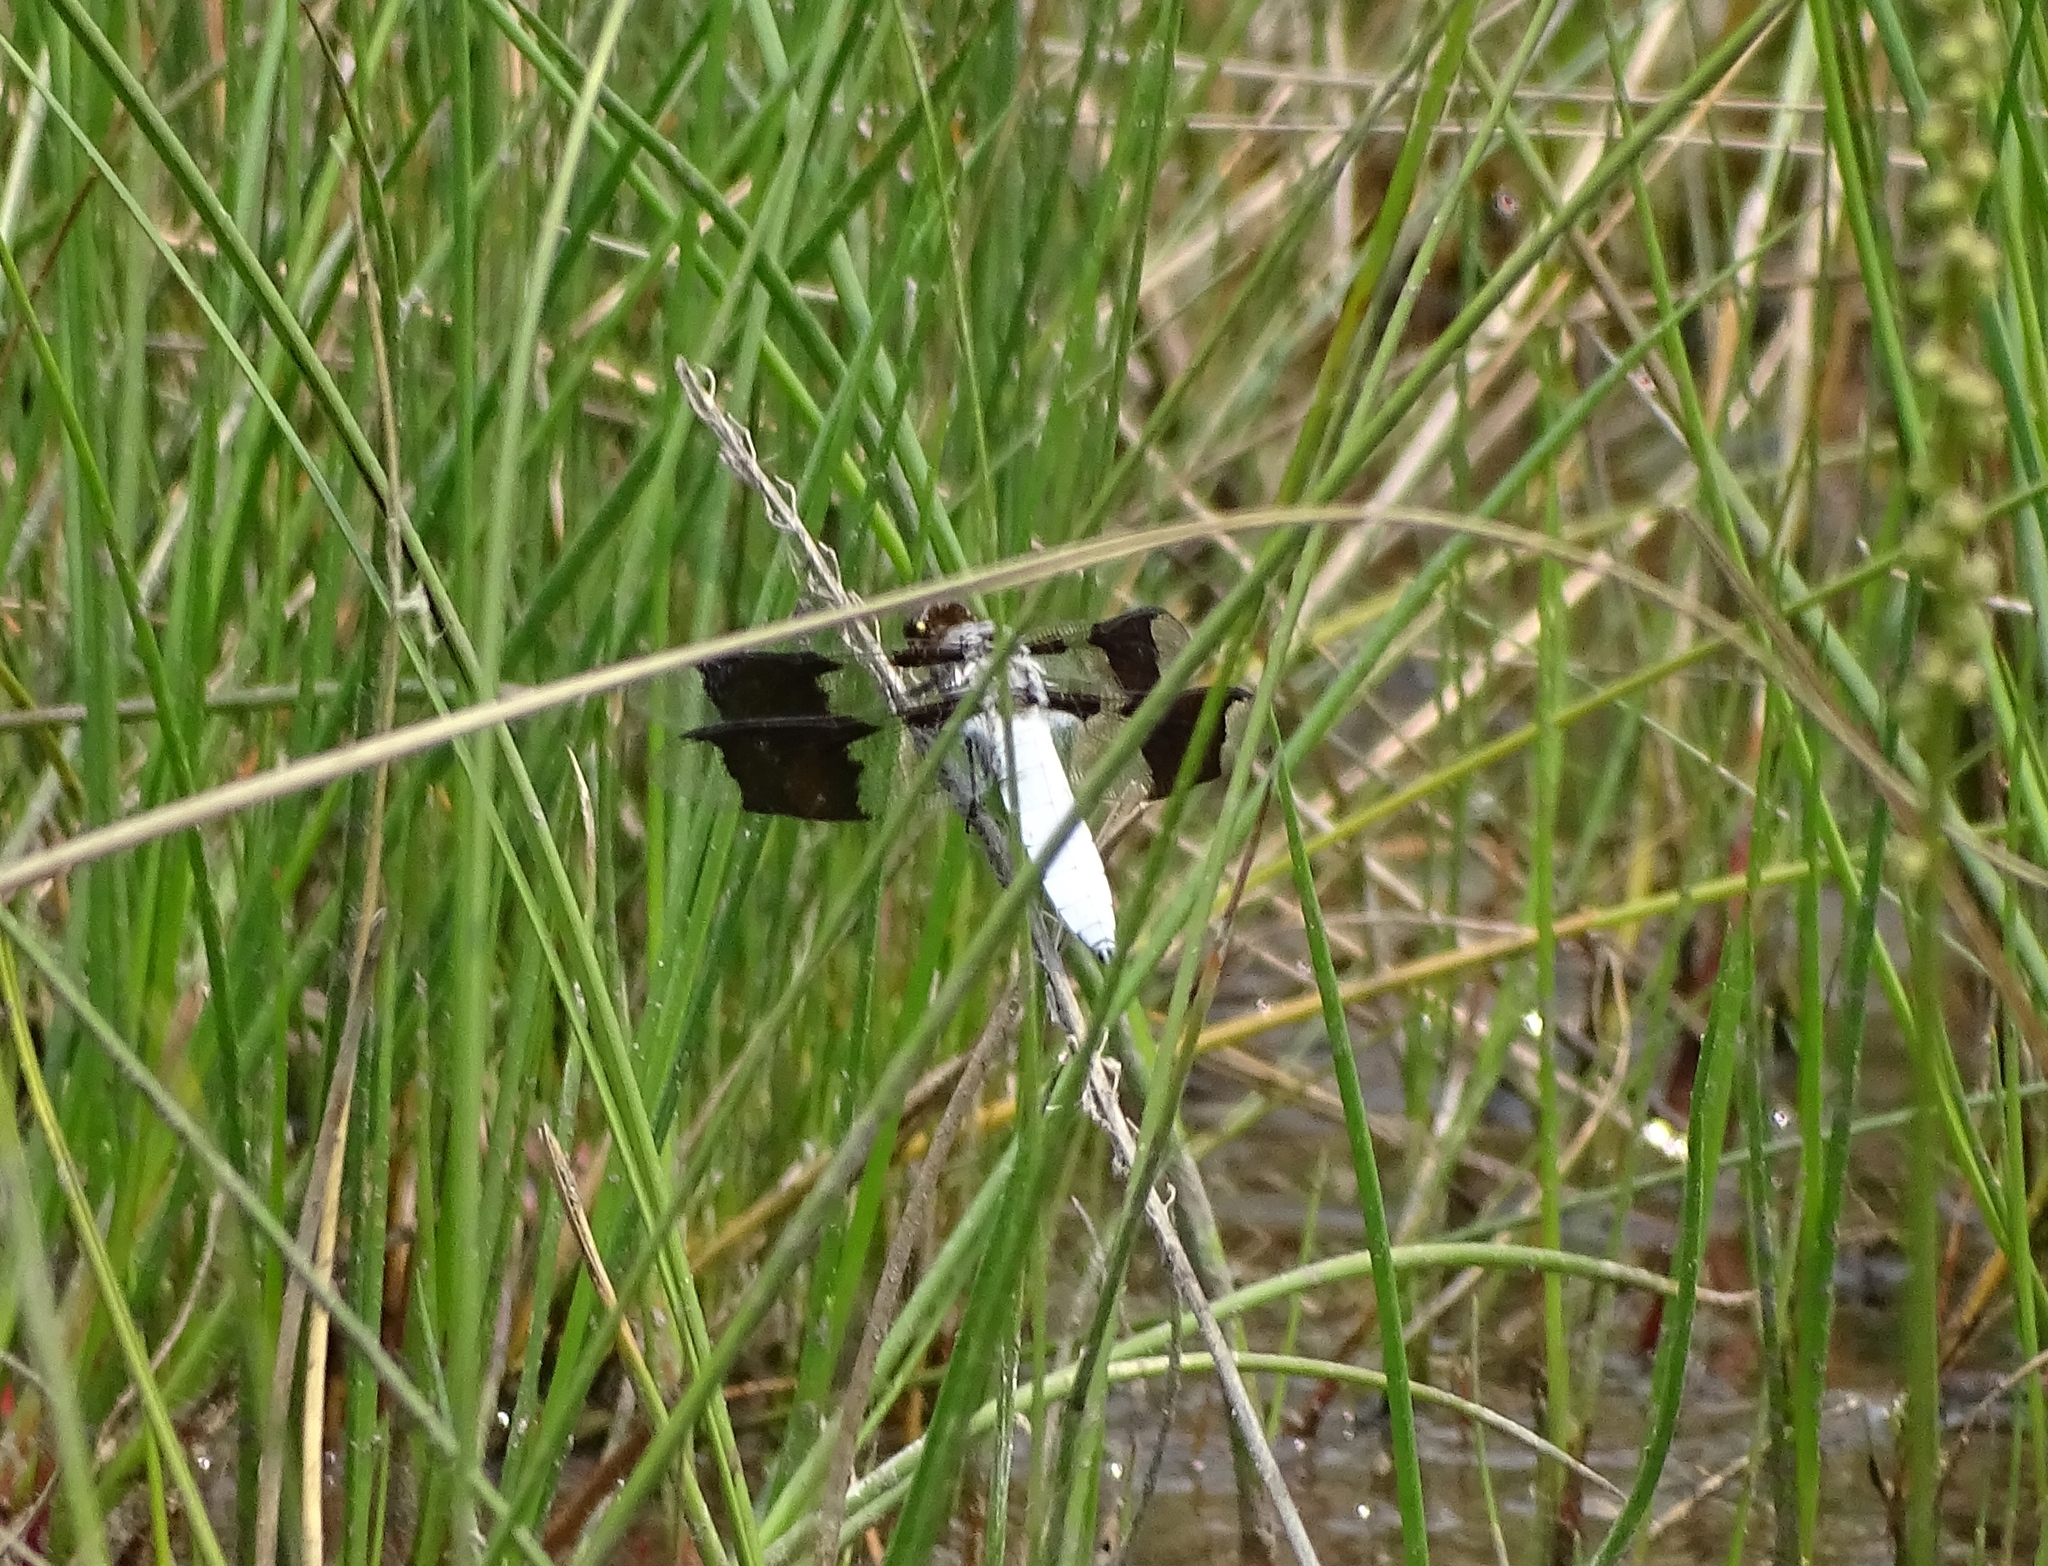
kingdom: Animalia
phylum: Arthropoda
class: Insecta
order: Odonata
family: Libellulidae
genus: Plathemis
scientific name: Plathemis lydia
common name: Common whitetail
